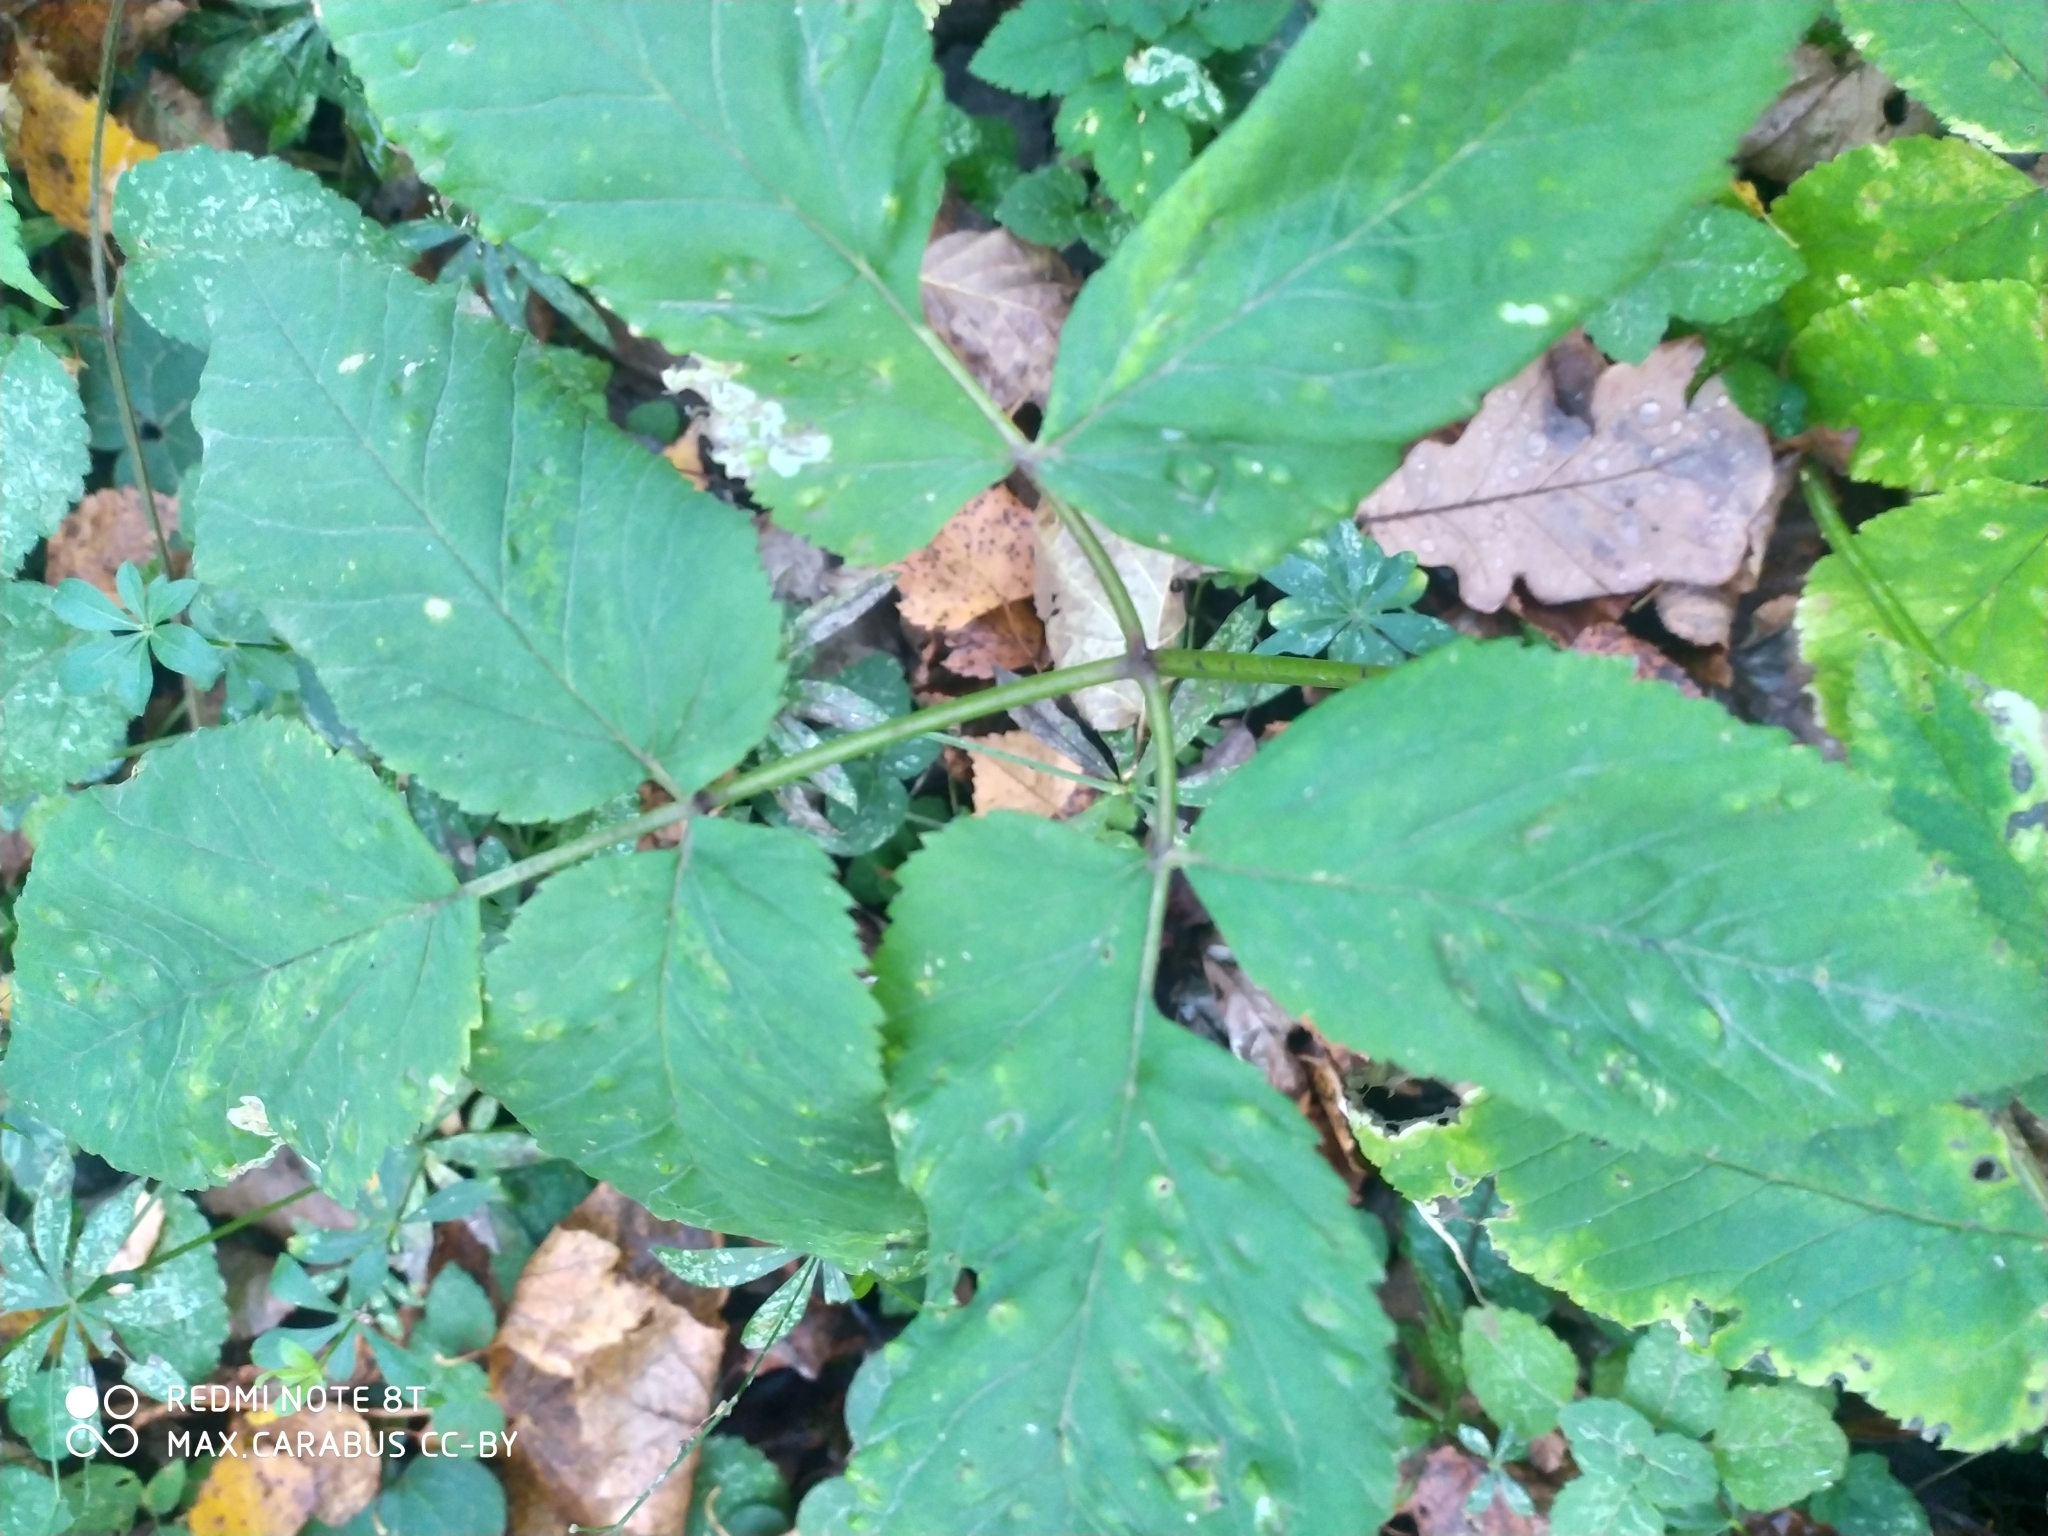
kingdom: Plantae
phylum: Tracheophyta
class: Magnoliopsida
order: Apiales
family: Apiaceae
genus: Aegopodium
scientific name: Aegopodium podagraria
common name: Ground-elder
